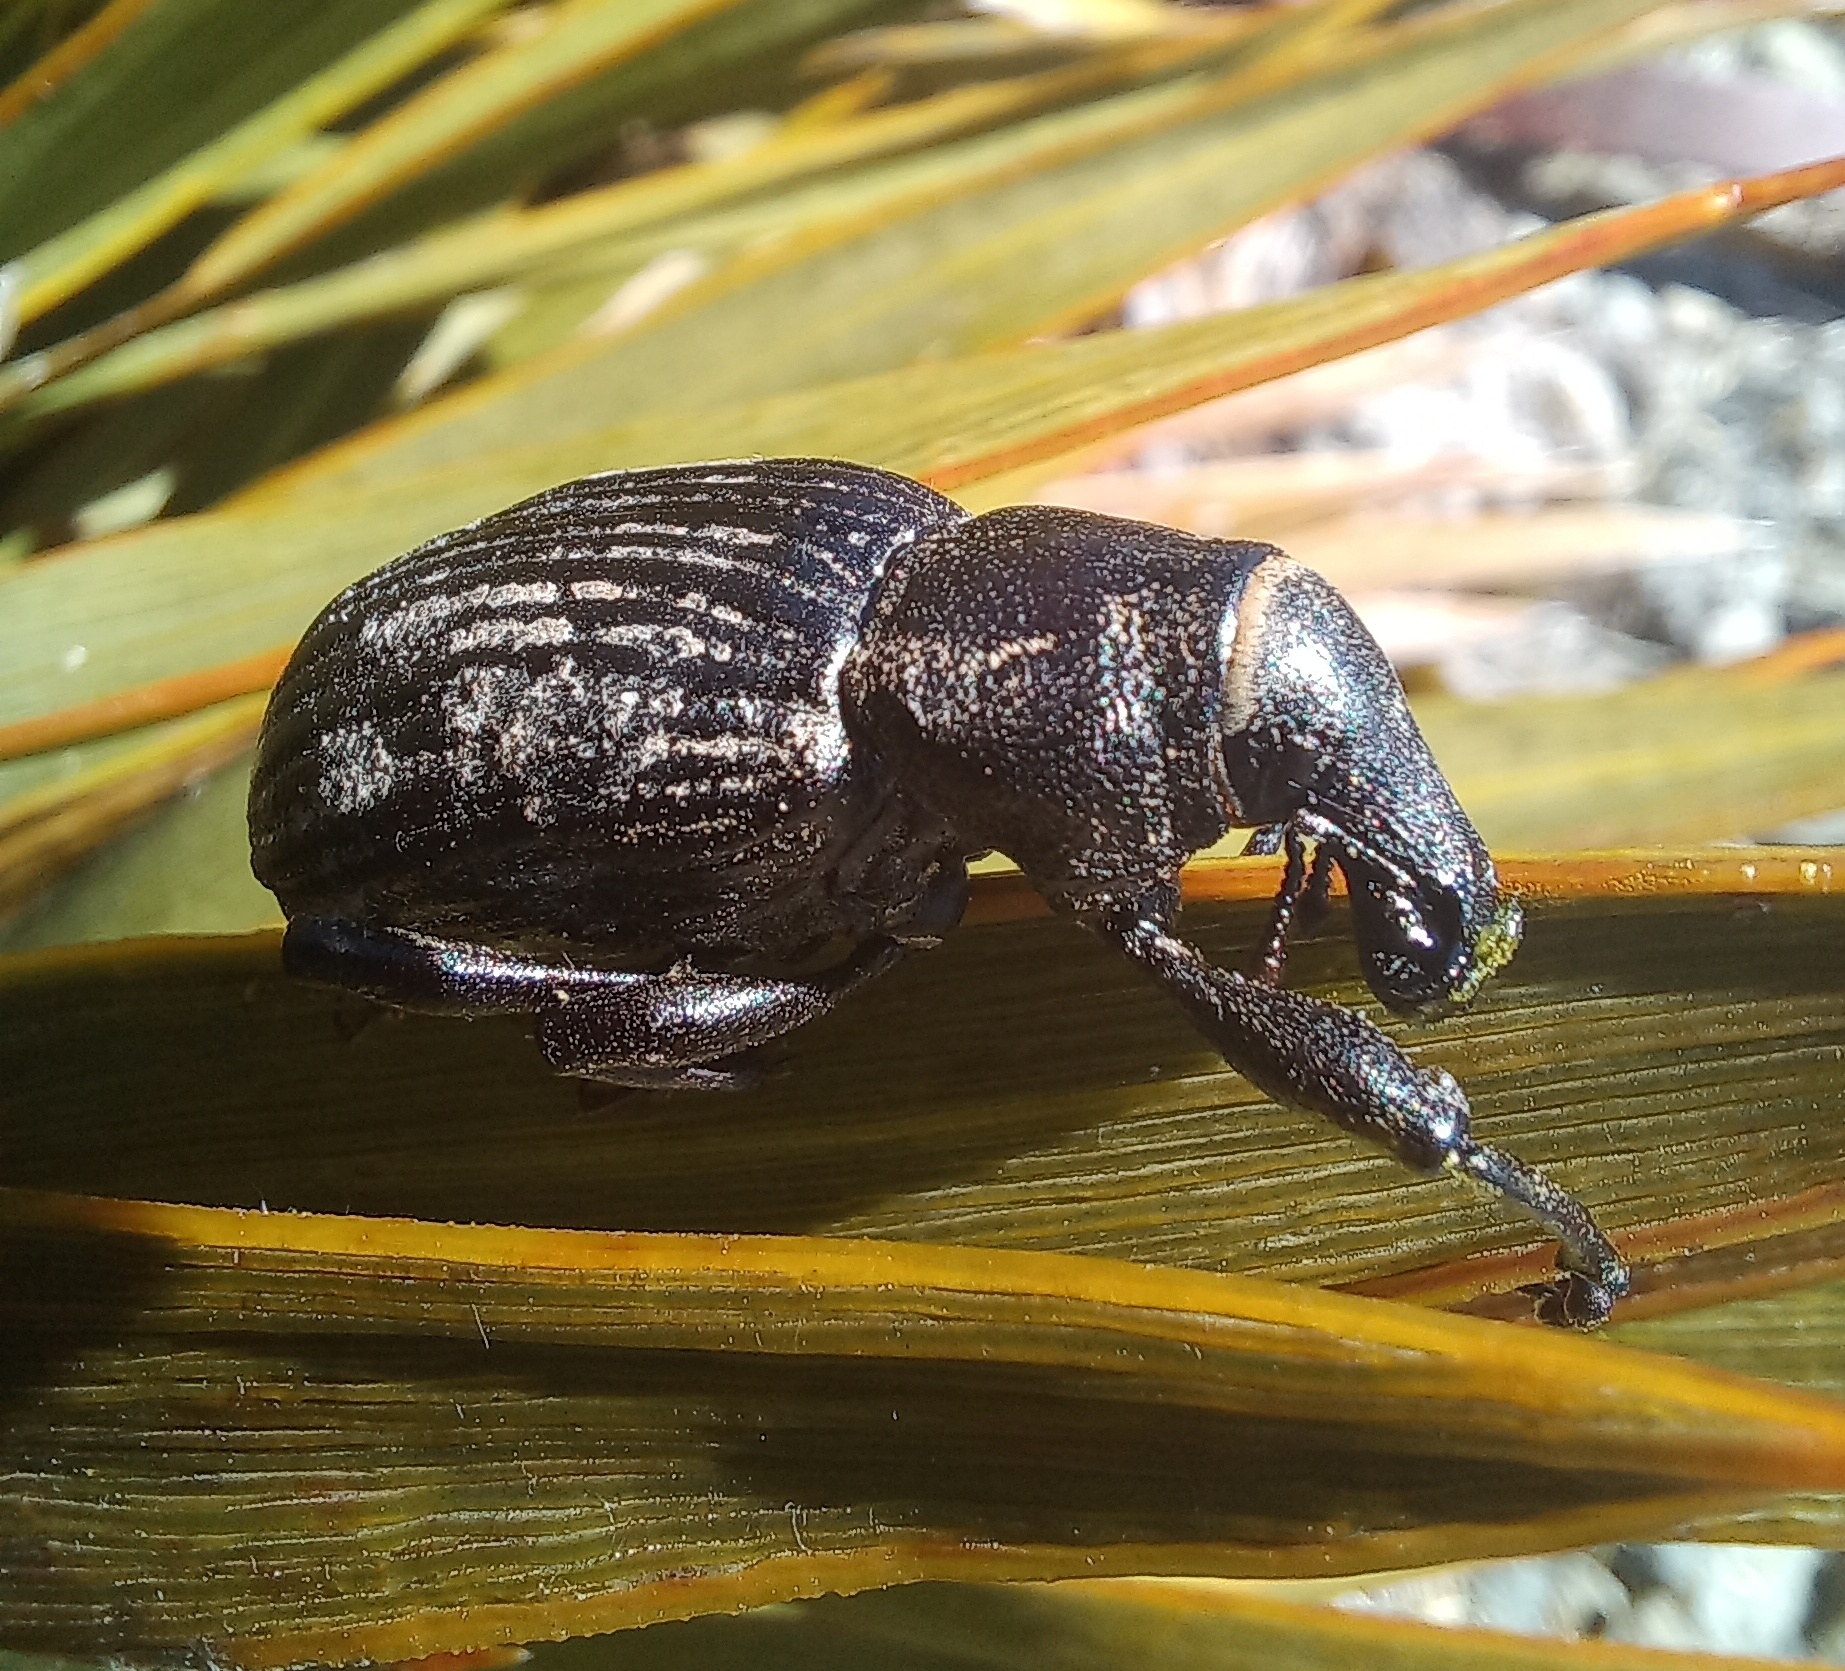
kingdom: Animalia
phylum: Arthropoda
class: Insecta
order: Coleoptera
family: Curculionidae
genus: Lyperobius
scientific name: Lyperobius huttoni
